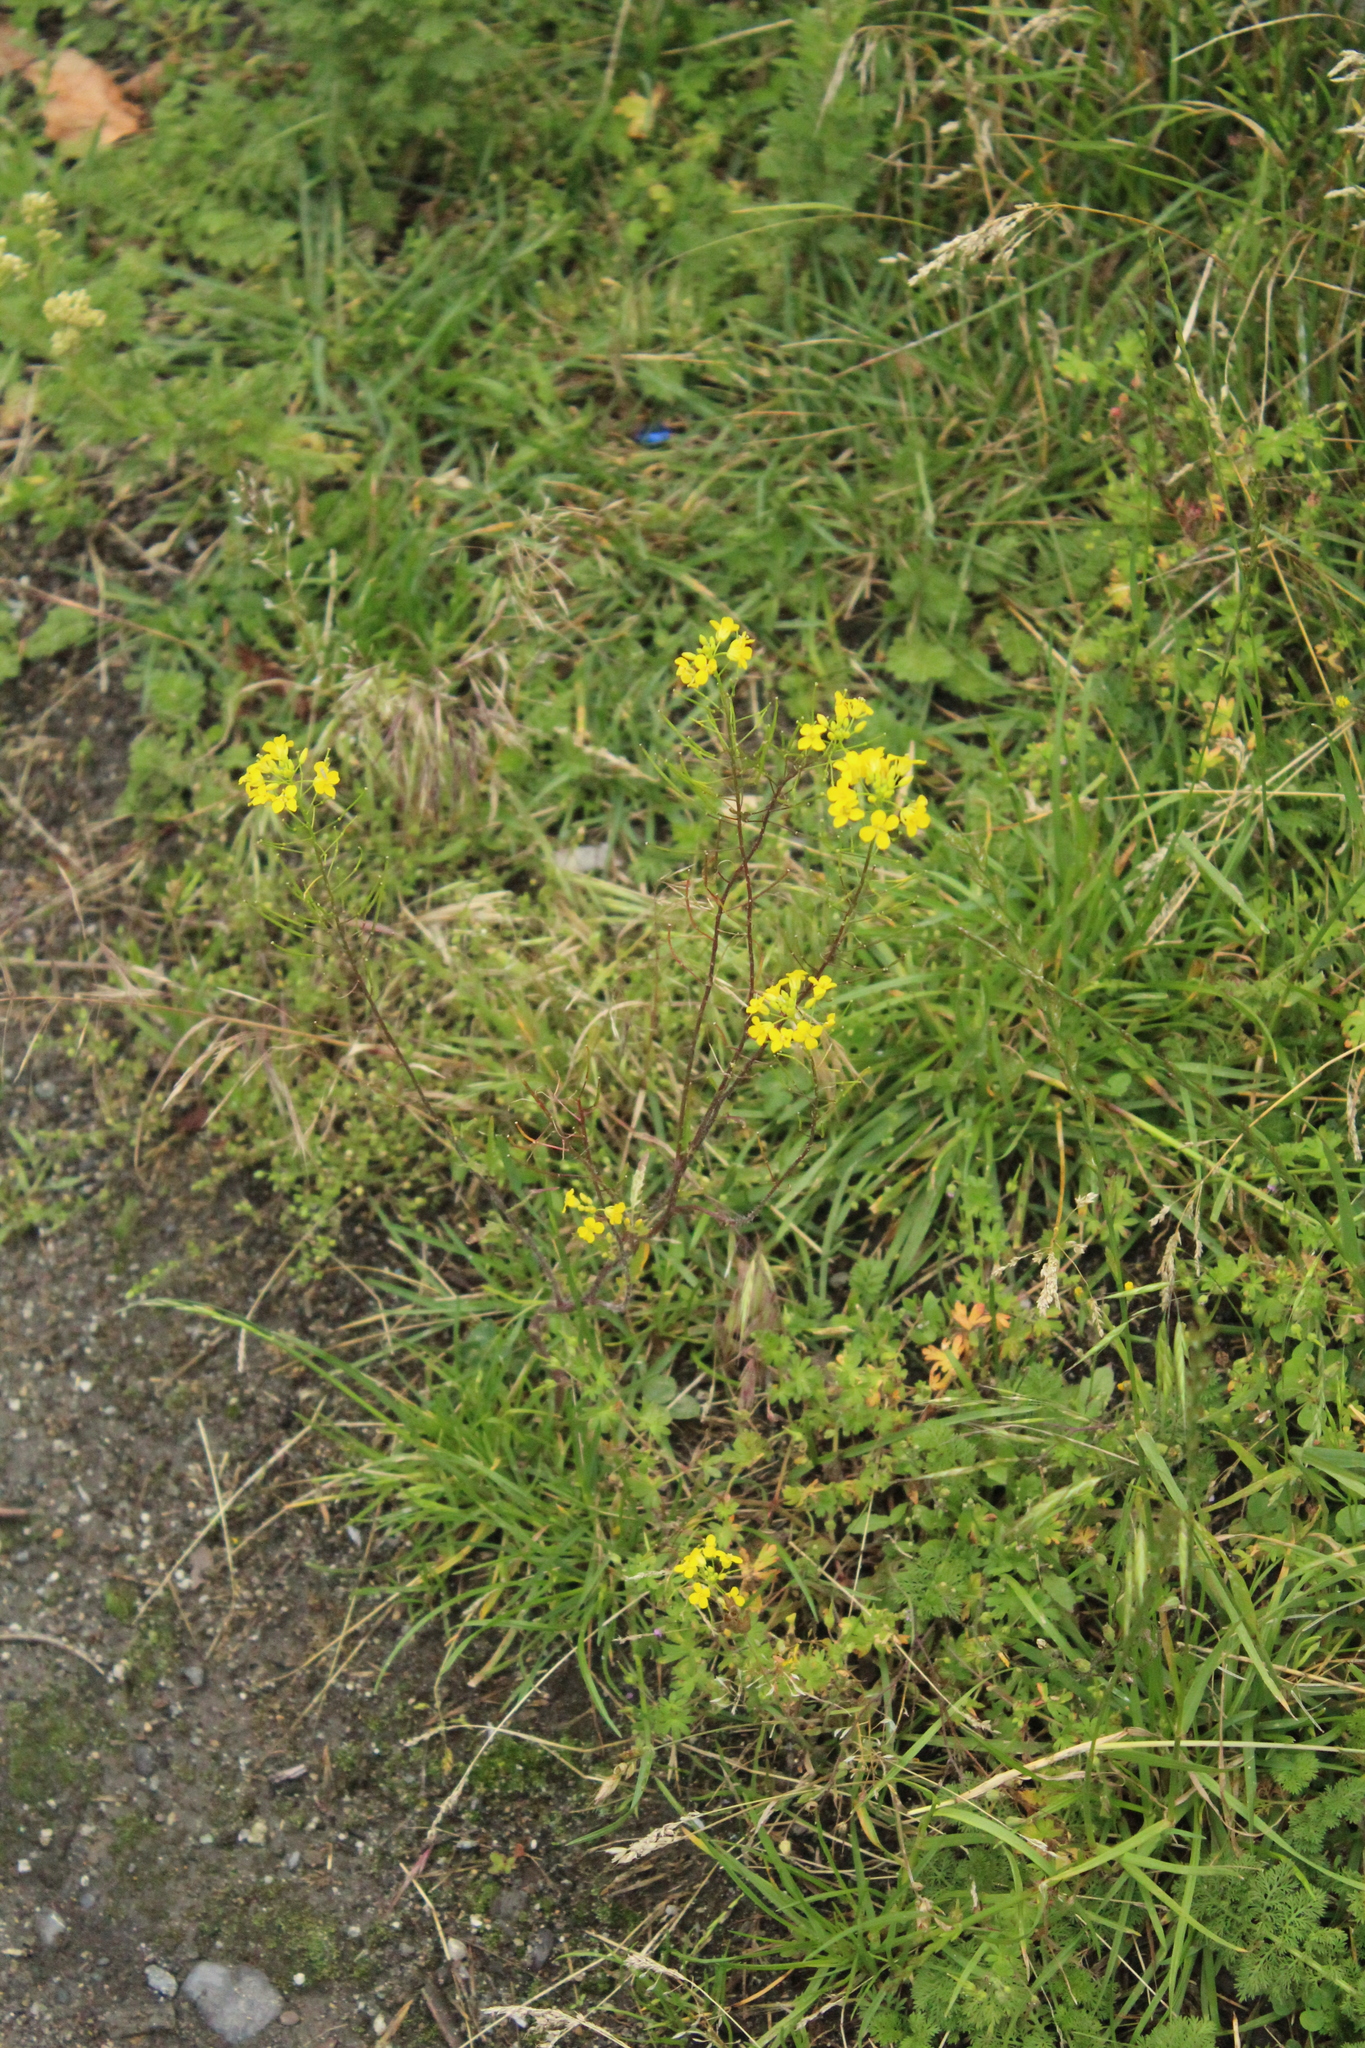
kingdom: Plantae
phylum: Tracheophyta
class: Magnoliopsida
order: Brassicales
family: Brassicaceae
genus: Sisymbrium
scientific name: Sisymbrium loeselii
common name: False london-rocket
